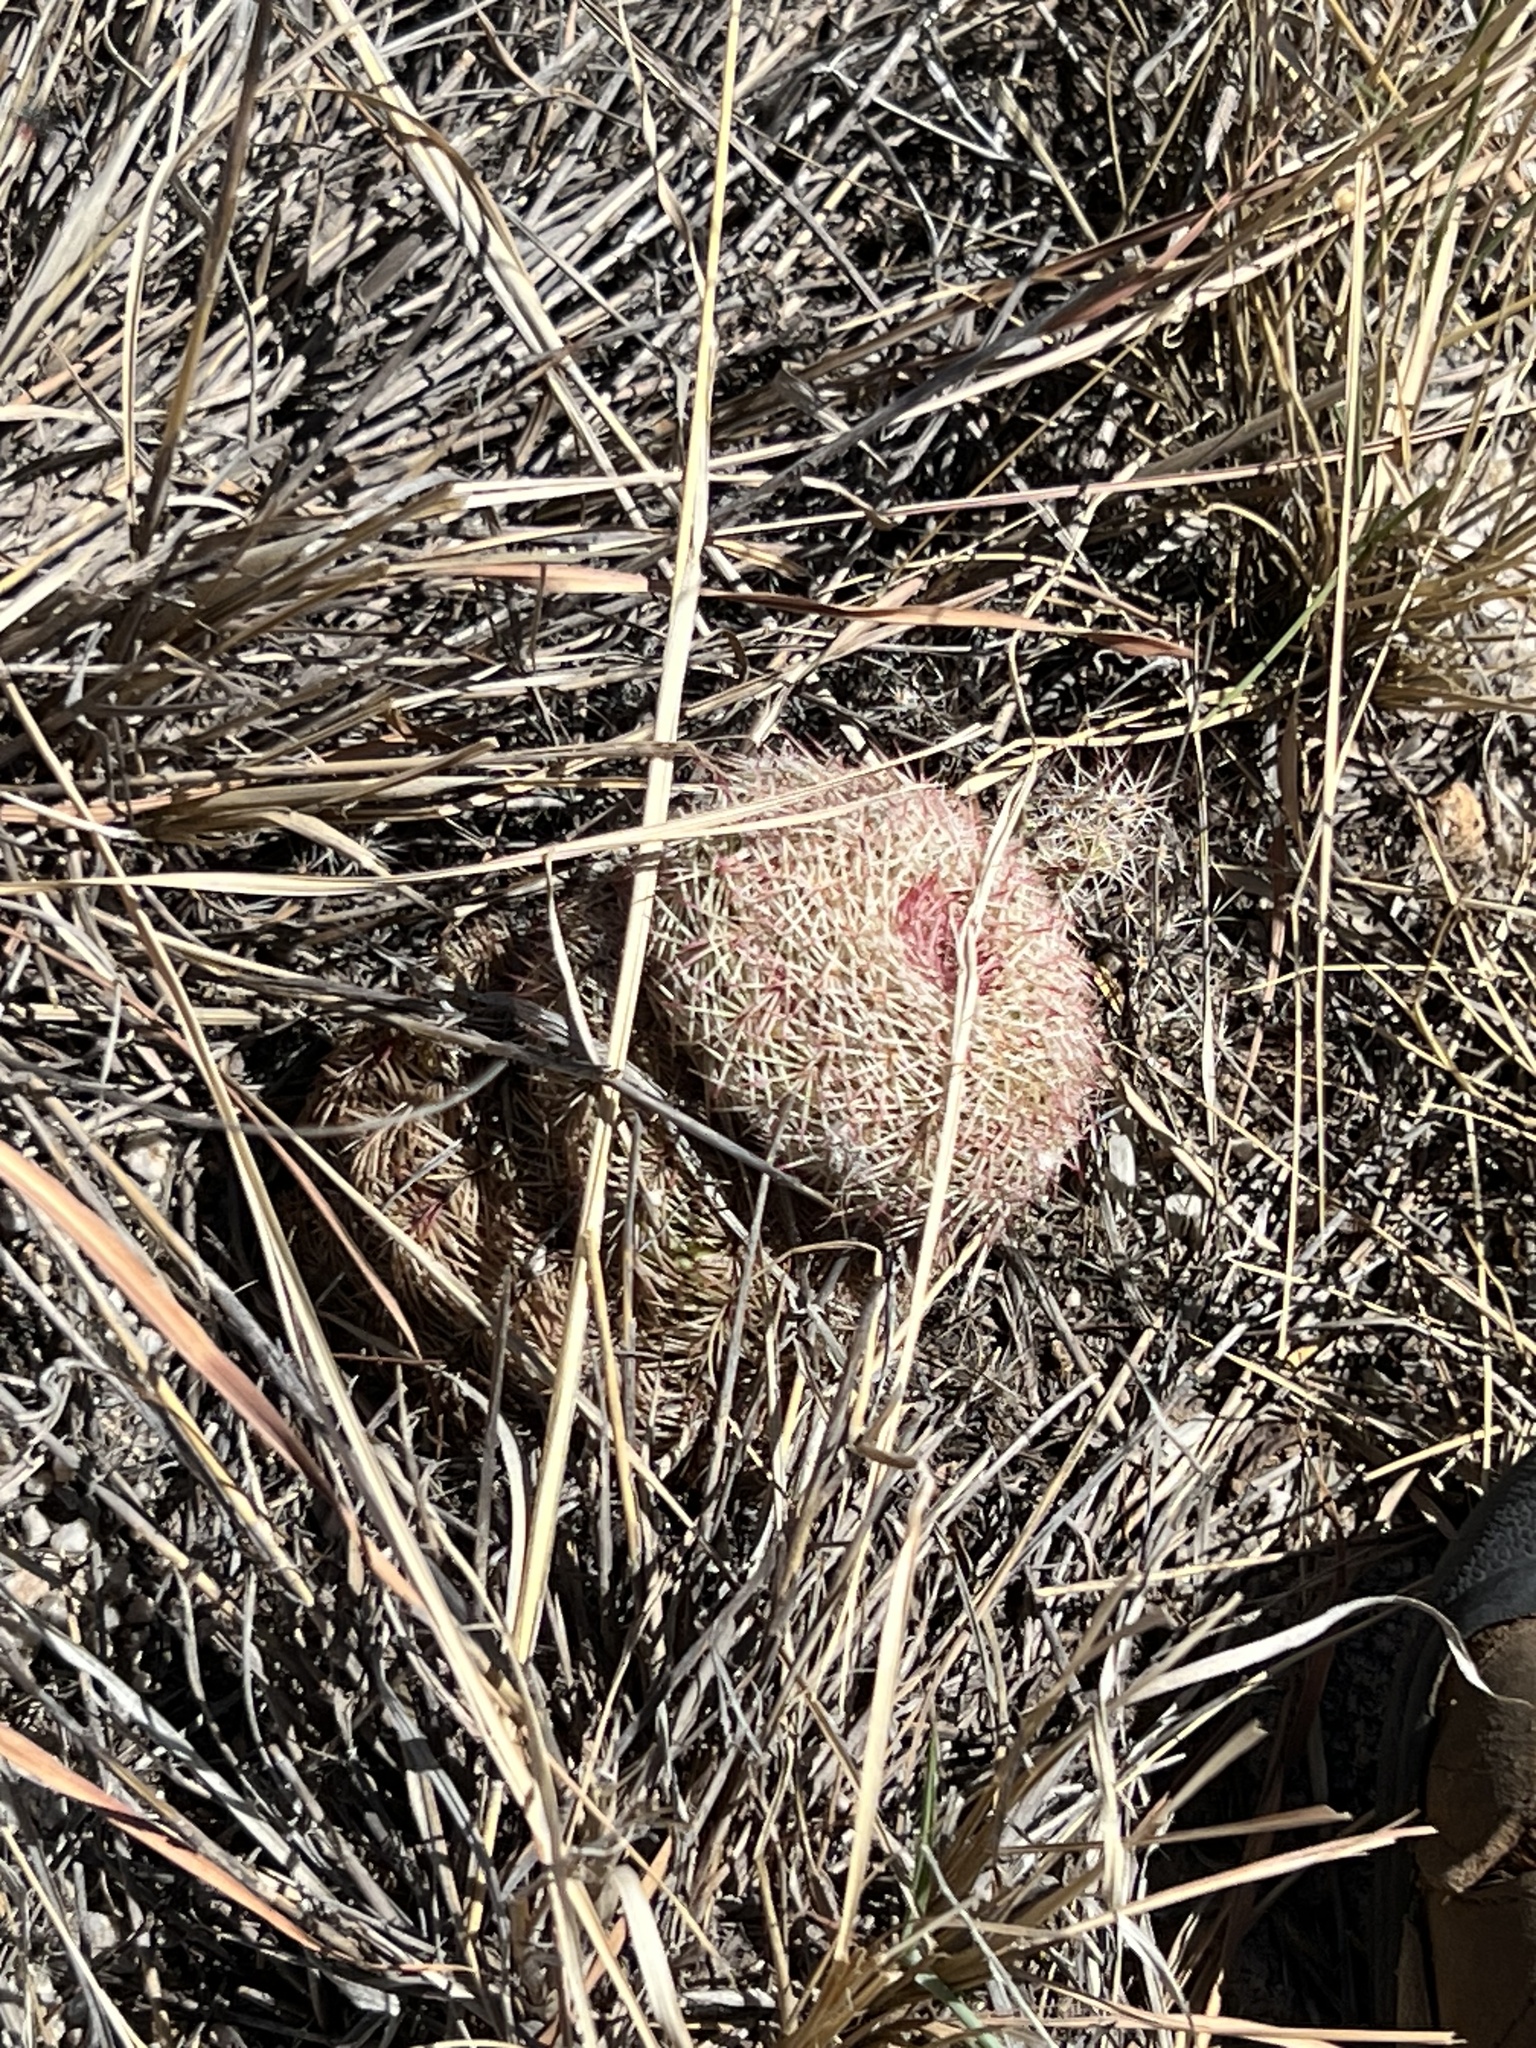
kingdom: Plantae
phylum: Tracheophyta
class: Magnoliopsida
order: Caryophyllales
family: Cactaceae
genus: Echinocereus
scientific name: Echinocereus rigidissimus
